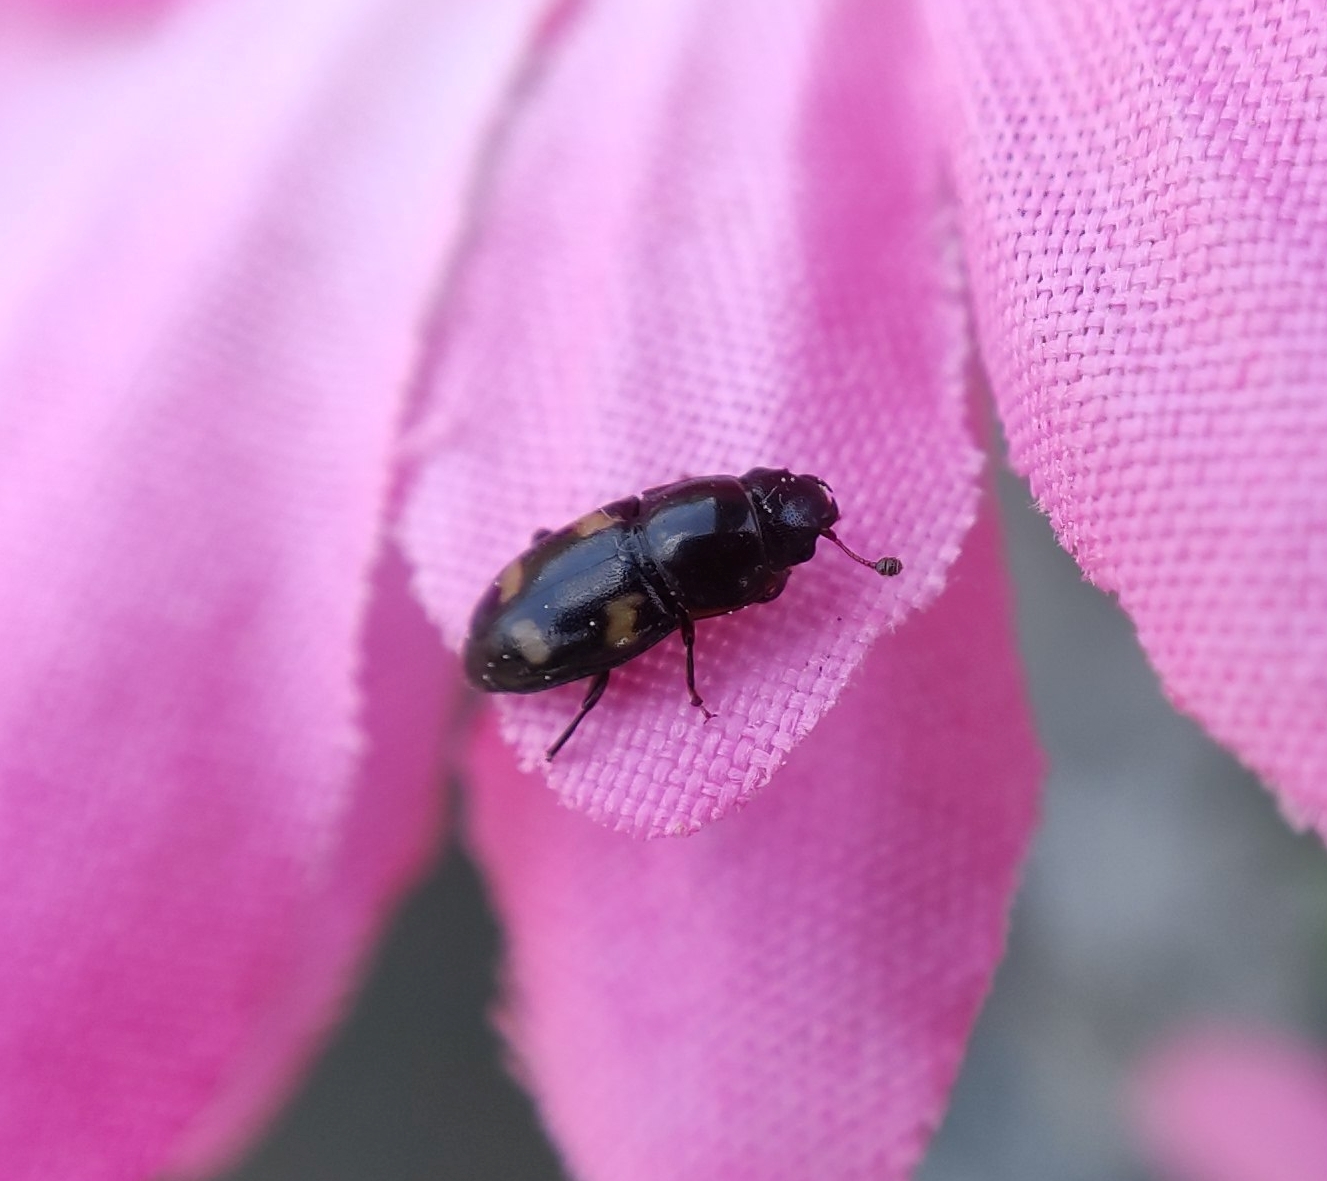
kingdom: Animalia
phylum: Arthropoda
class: Insecta
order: Coleoptera
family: Nitidulidae
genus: Glischrochilus
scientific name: Glischrochilus quadrisignatus
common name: Picnic beetle
